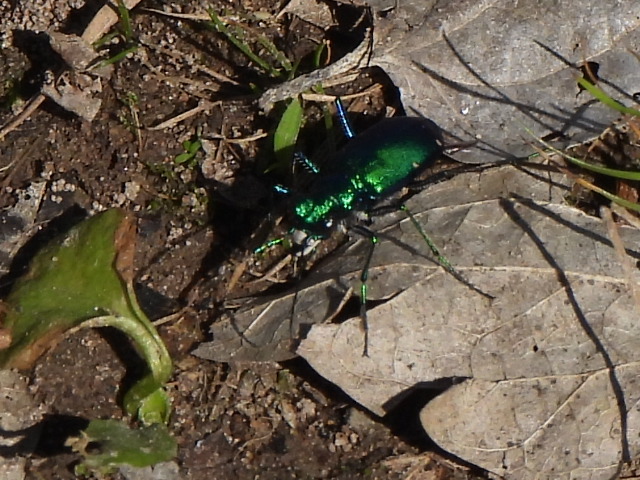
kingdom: Animalia
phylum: Arthropoda
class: Insecta
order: Coleoptera
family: Carabidae
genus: Cicindela
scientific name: Cicindela sexguttata
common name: Six-spotted tiger beetle
